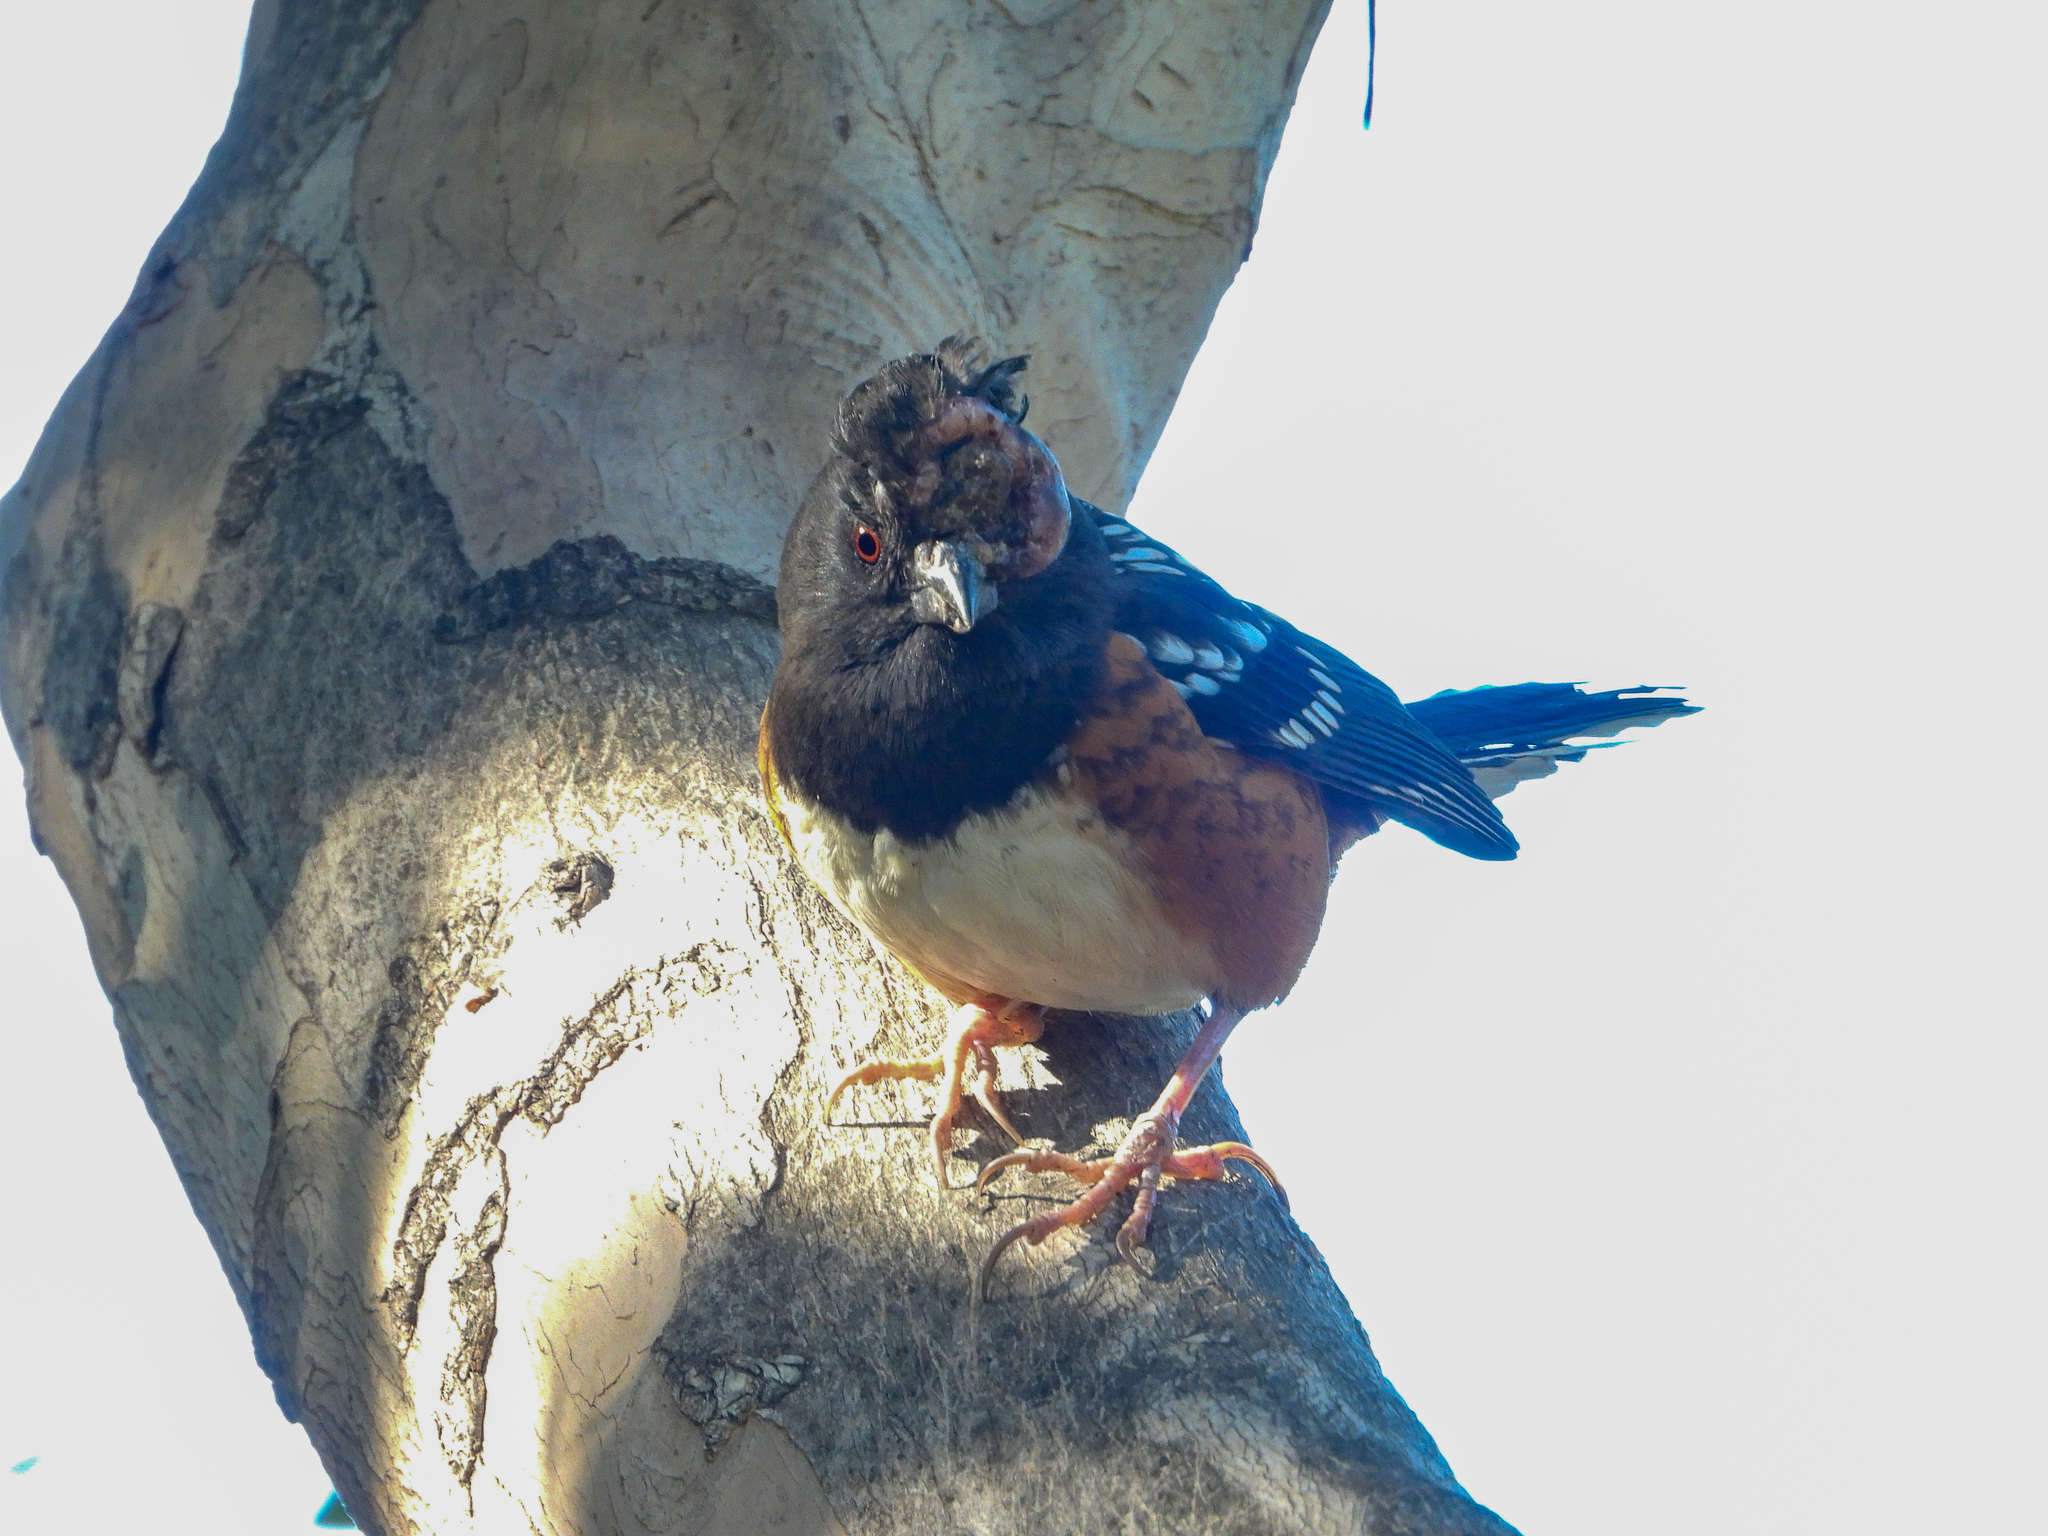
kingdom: Animalia
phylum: Chordata
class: Aves
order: Passeriformes
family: Passerellidae
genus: Pipilo
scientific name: Pipilo maculatus
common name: Spotted towhee
